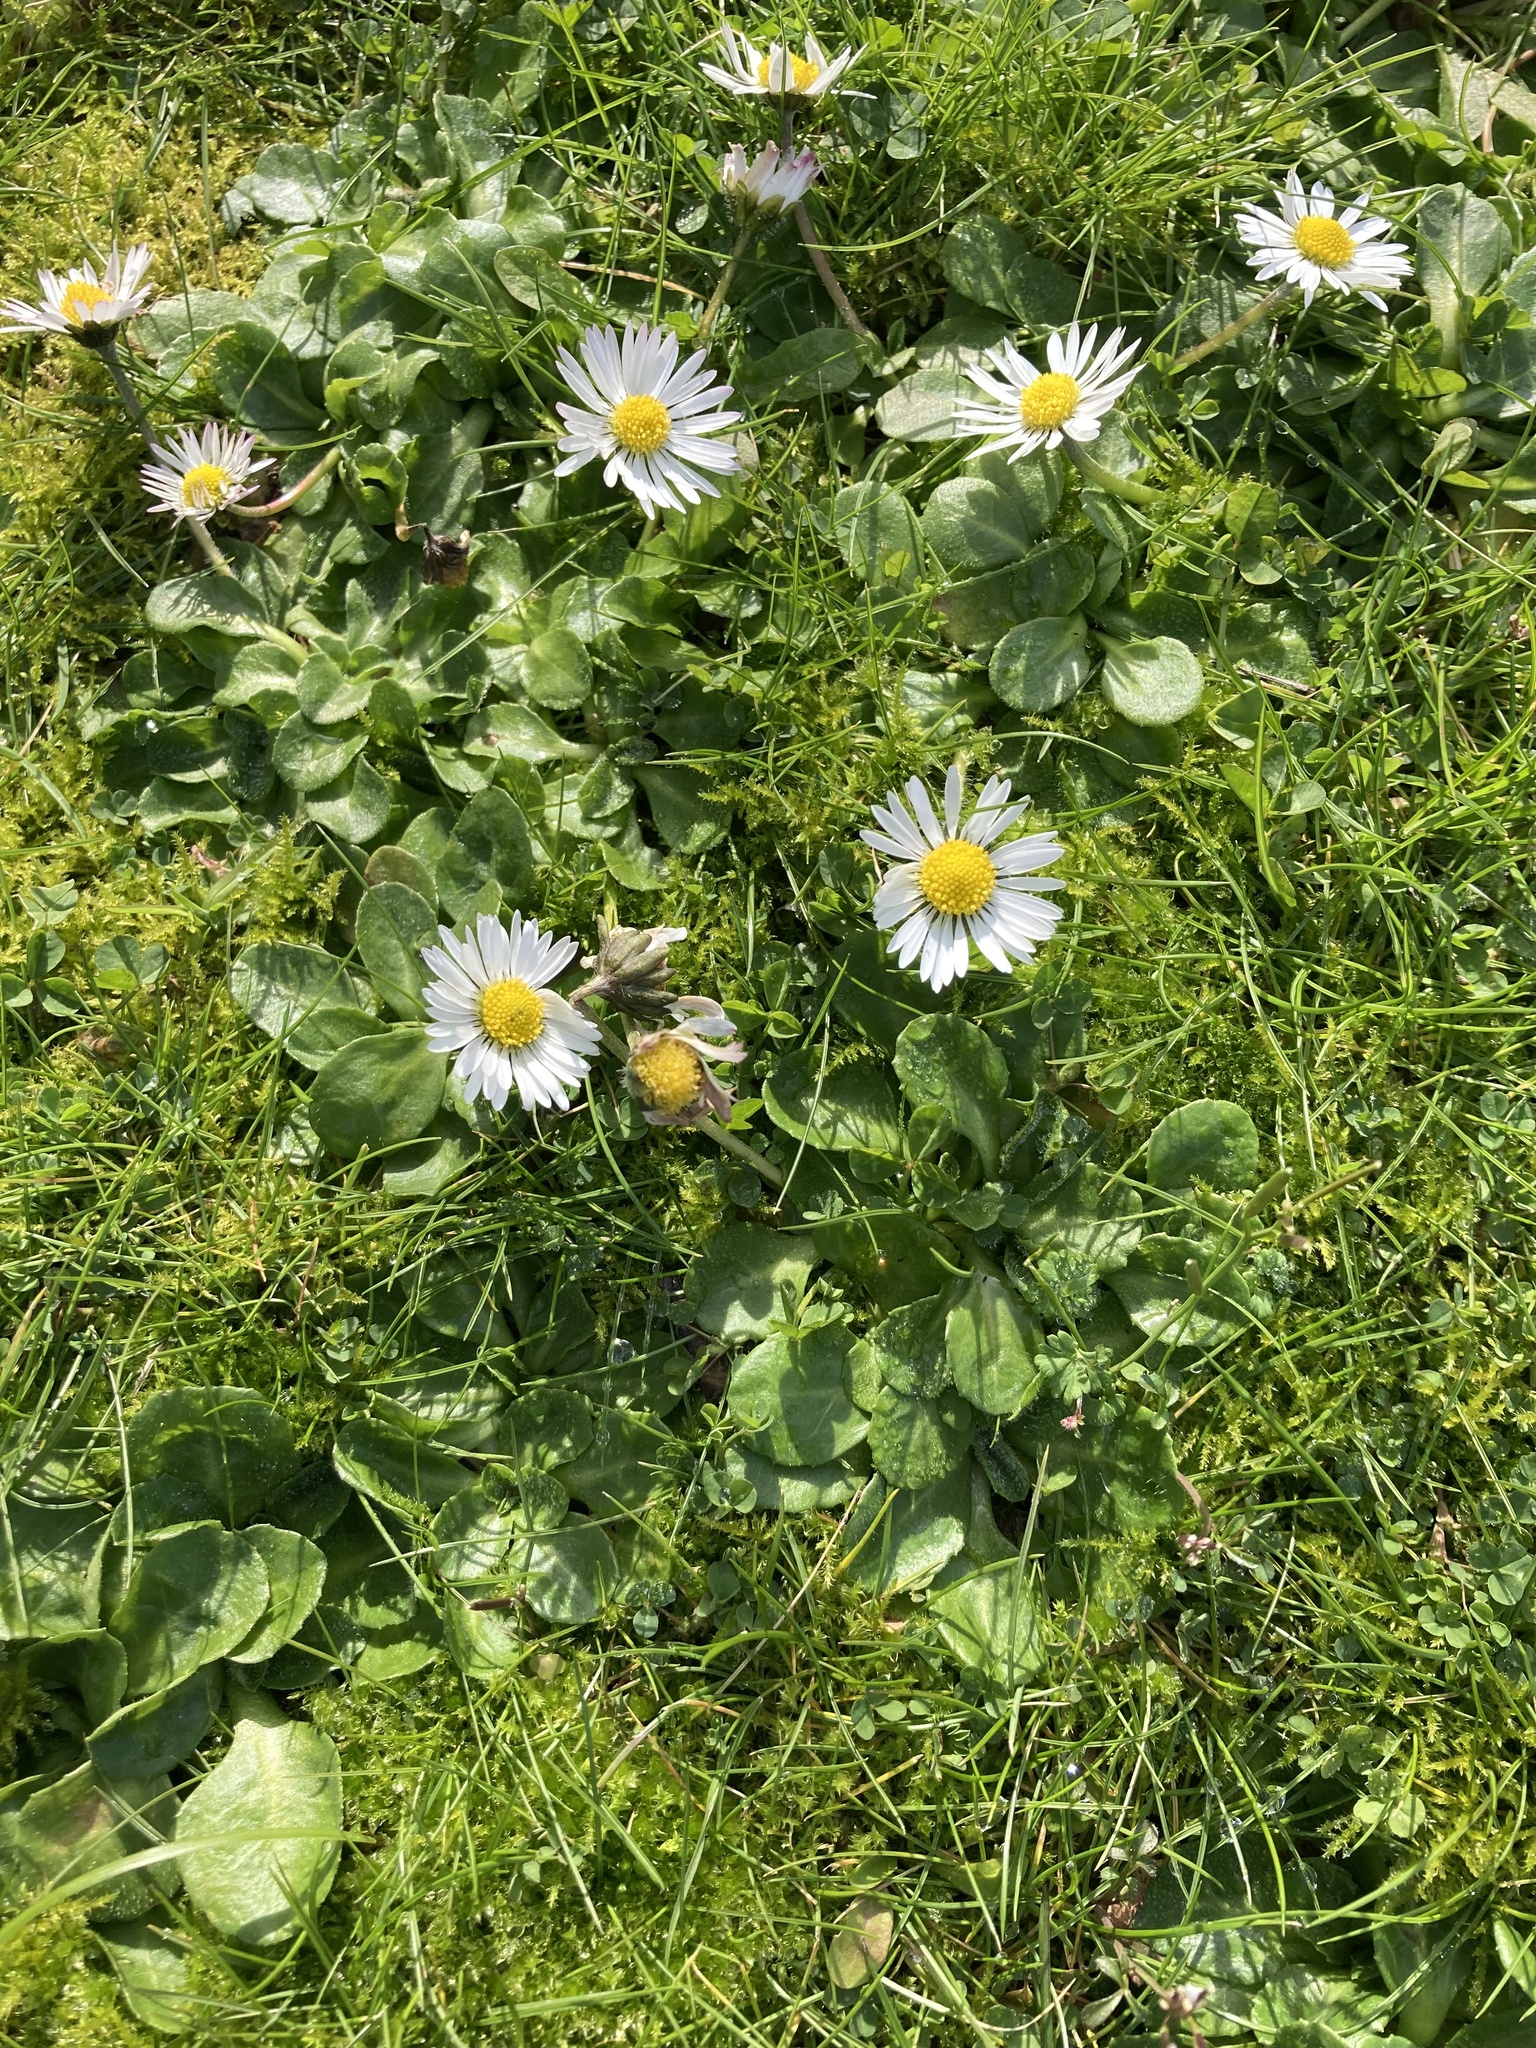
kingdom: Plantae
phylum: Tracheophyta
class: Magnoliopsida
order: Asterales
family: Asteraceae
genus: Bellis
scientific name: Bellis perennis
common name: Lawndaisy
